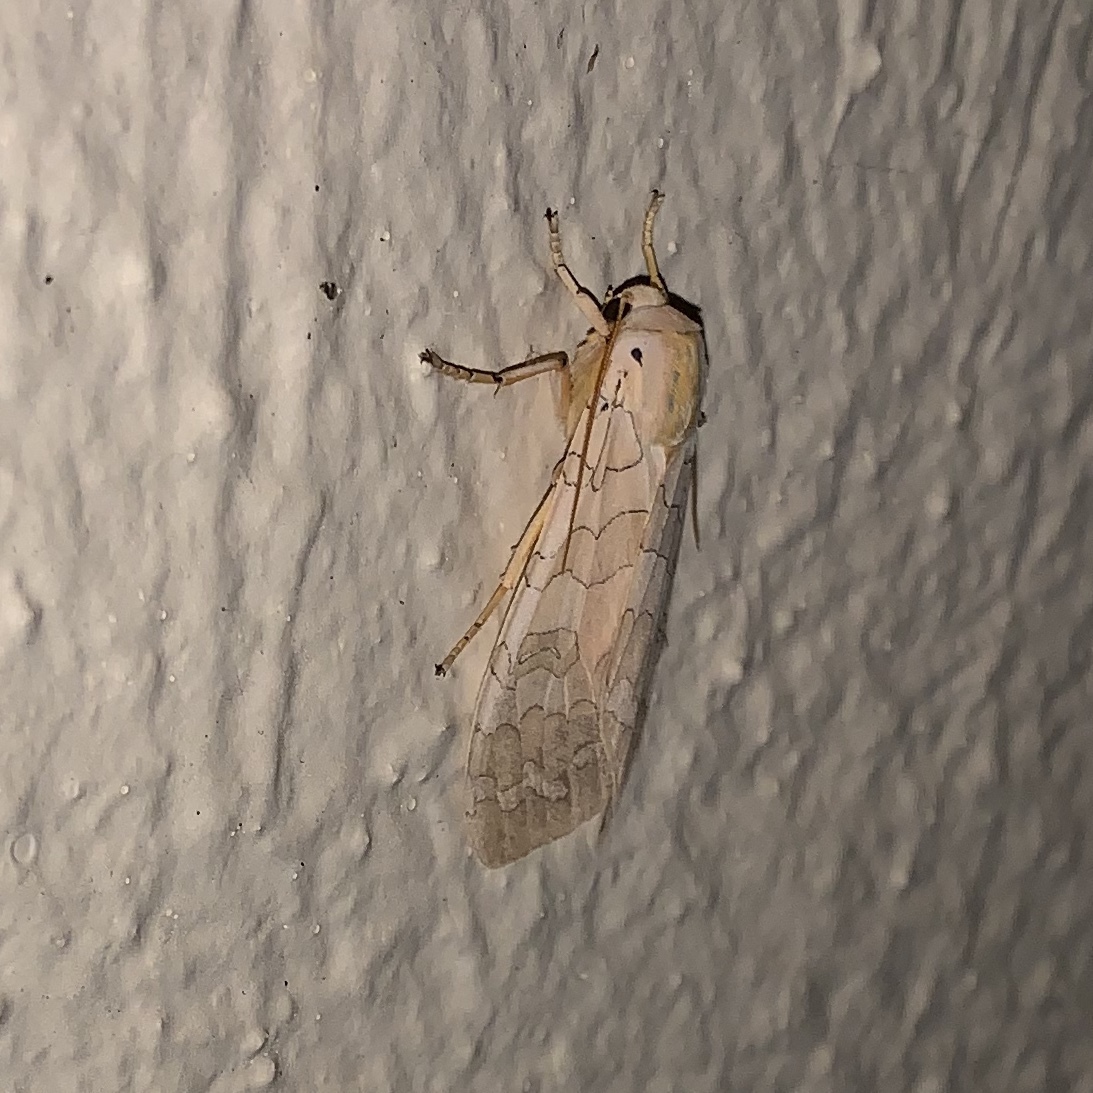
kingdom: Animalia
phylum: Arthropoda
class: Insecta
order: Lepidoptera
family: Erebidae
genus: Halysidota
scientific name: Halysidota
